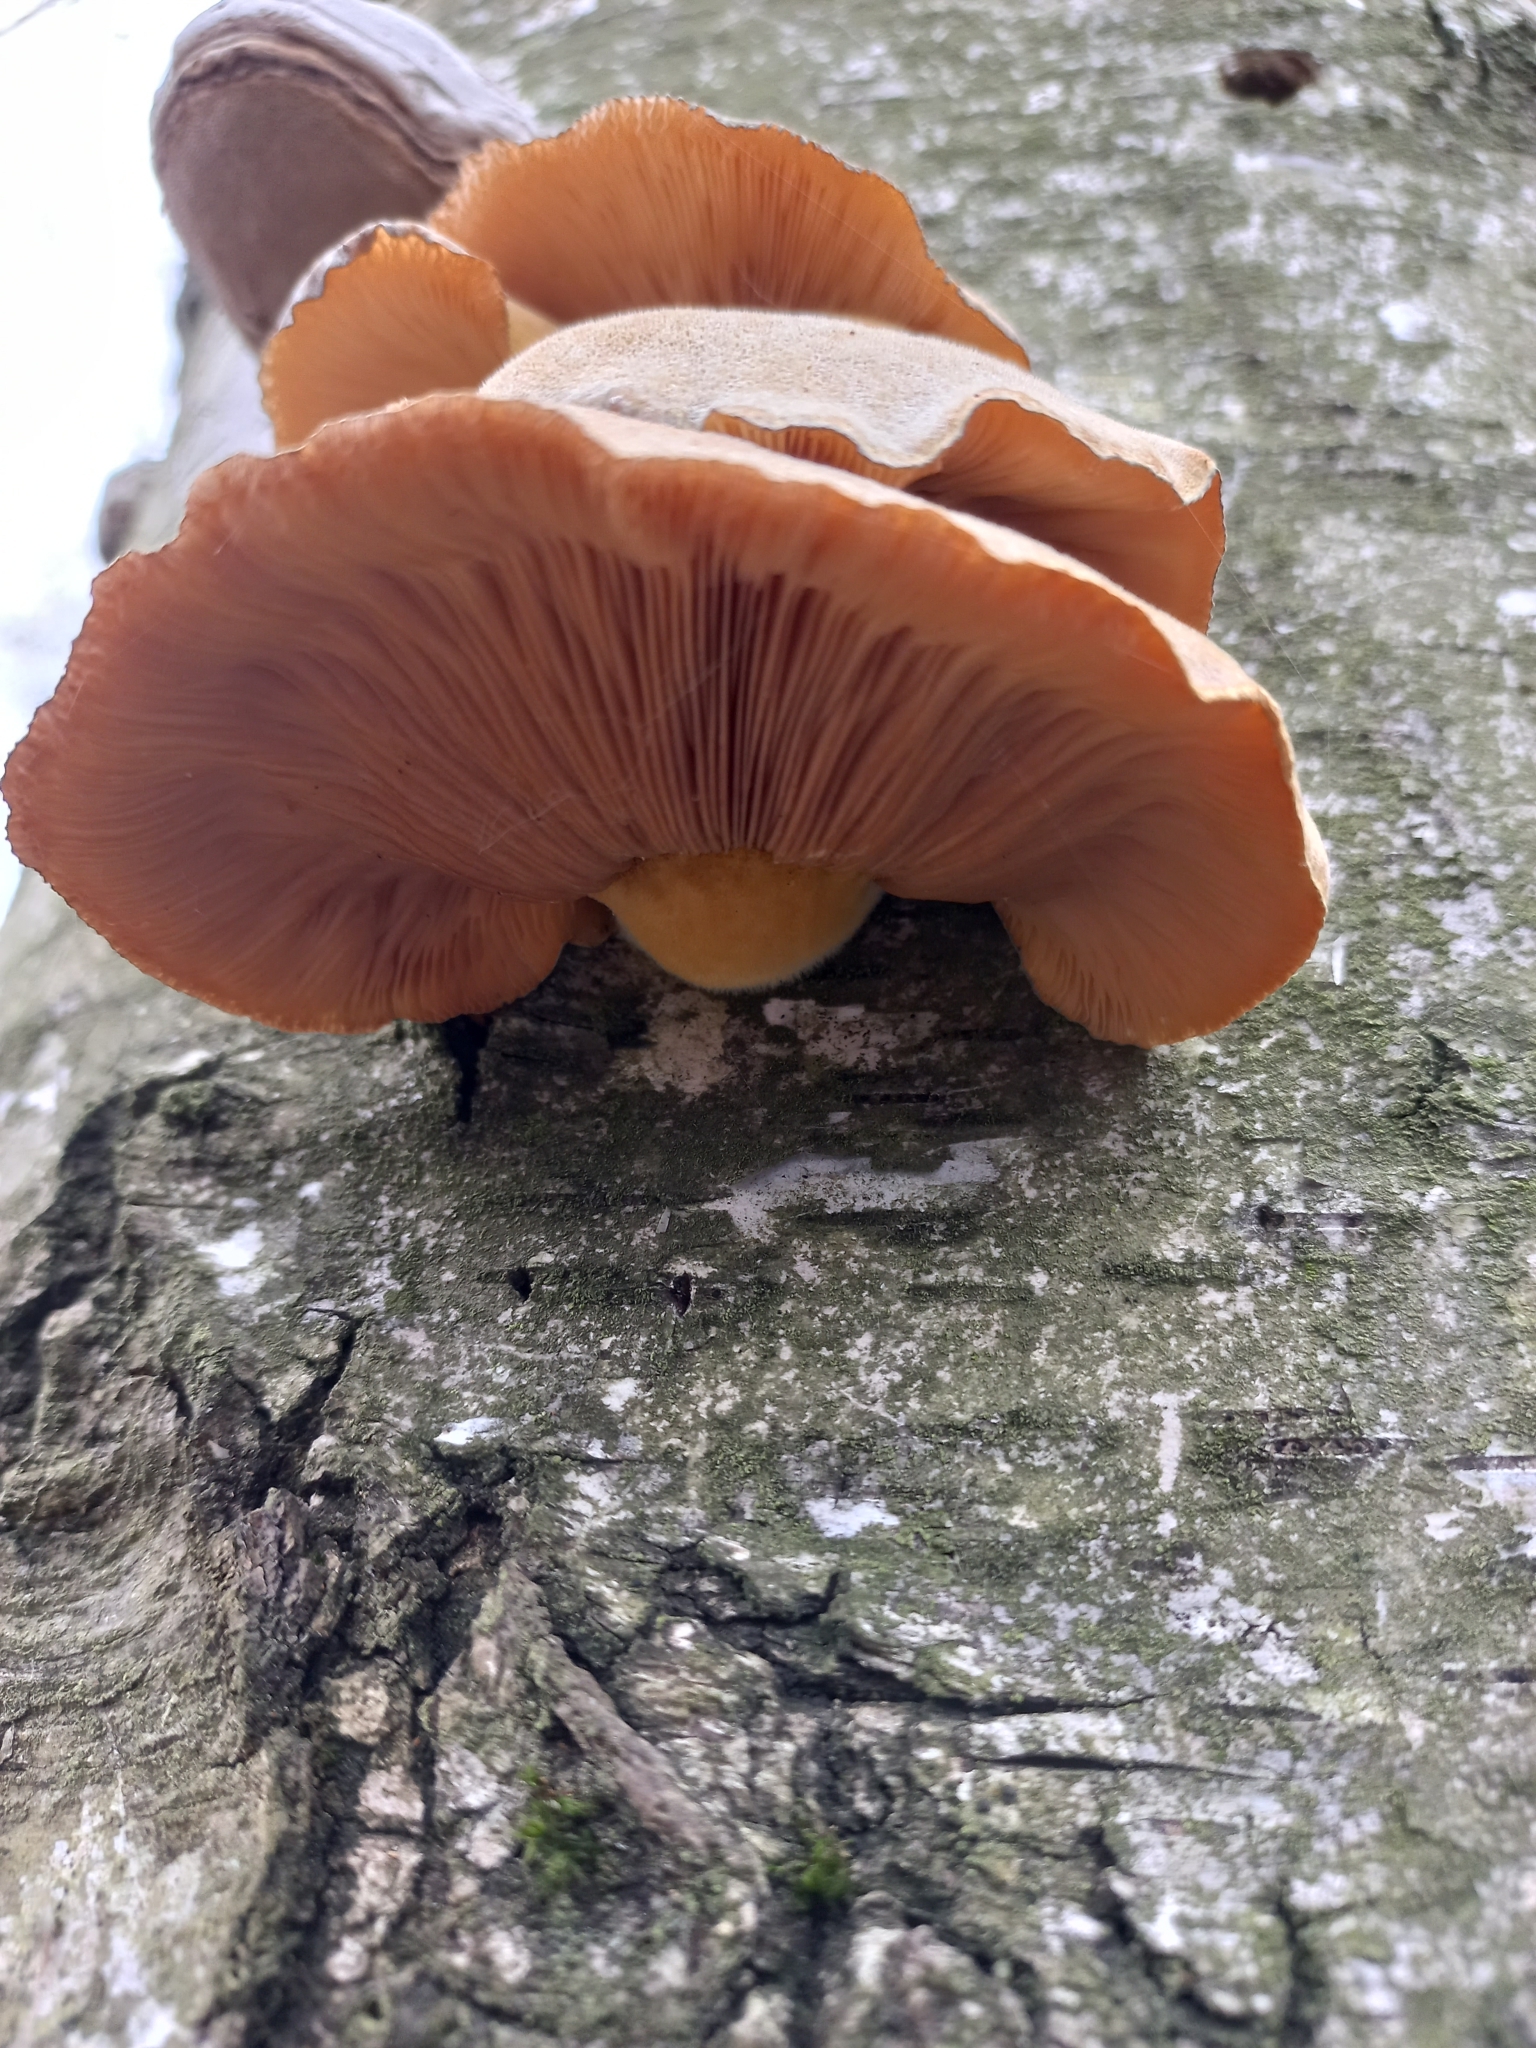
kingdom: Fungi
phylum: Basidiomycota
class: Agaricomycetes
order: Agaricales
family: Sarcomyxaceae
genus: Sarcomyxa
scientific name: Sarcomyxa serotina
